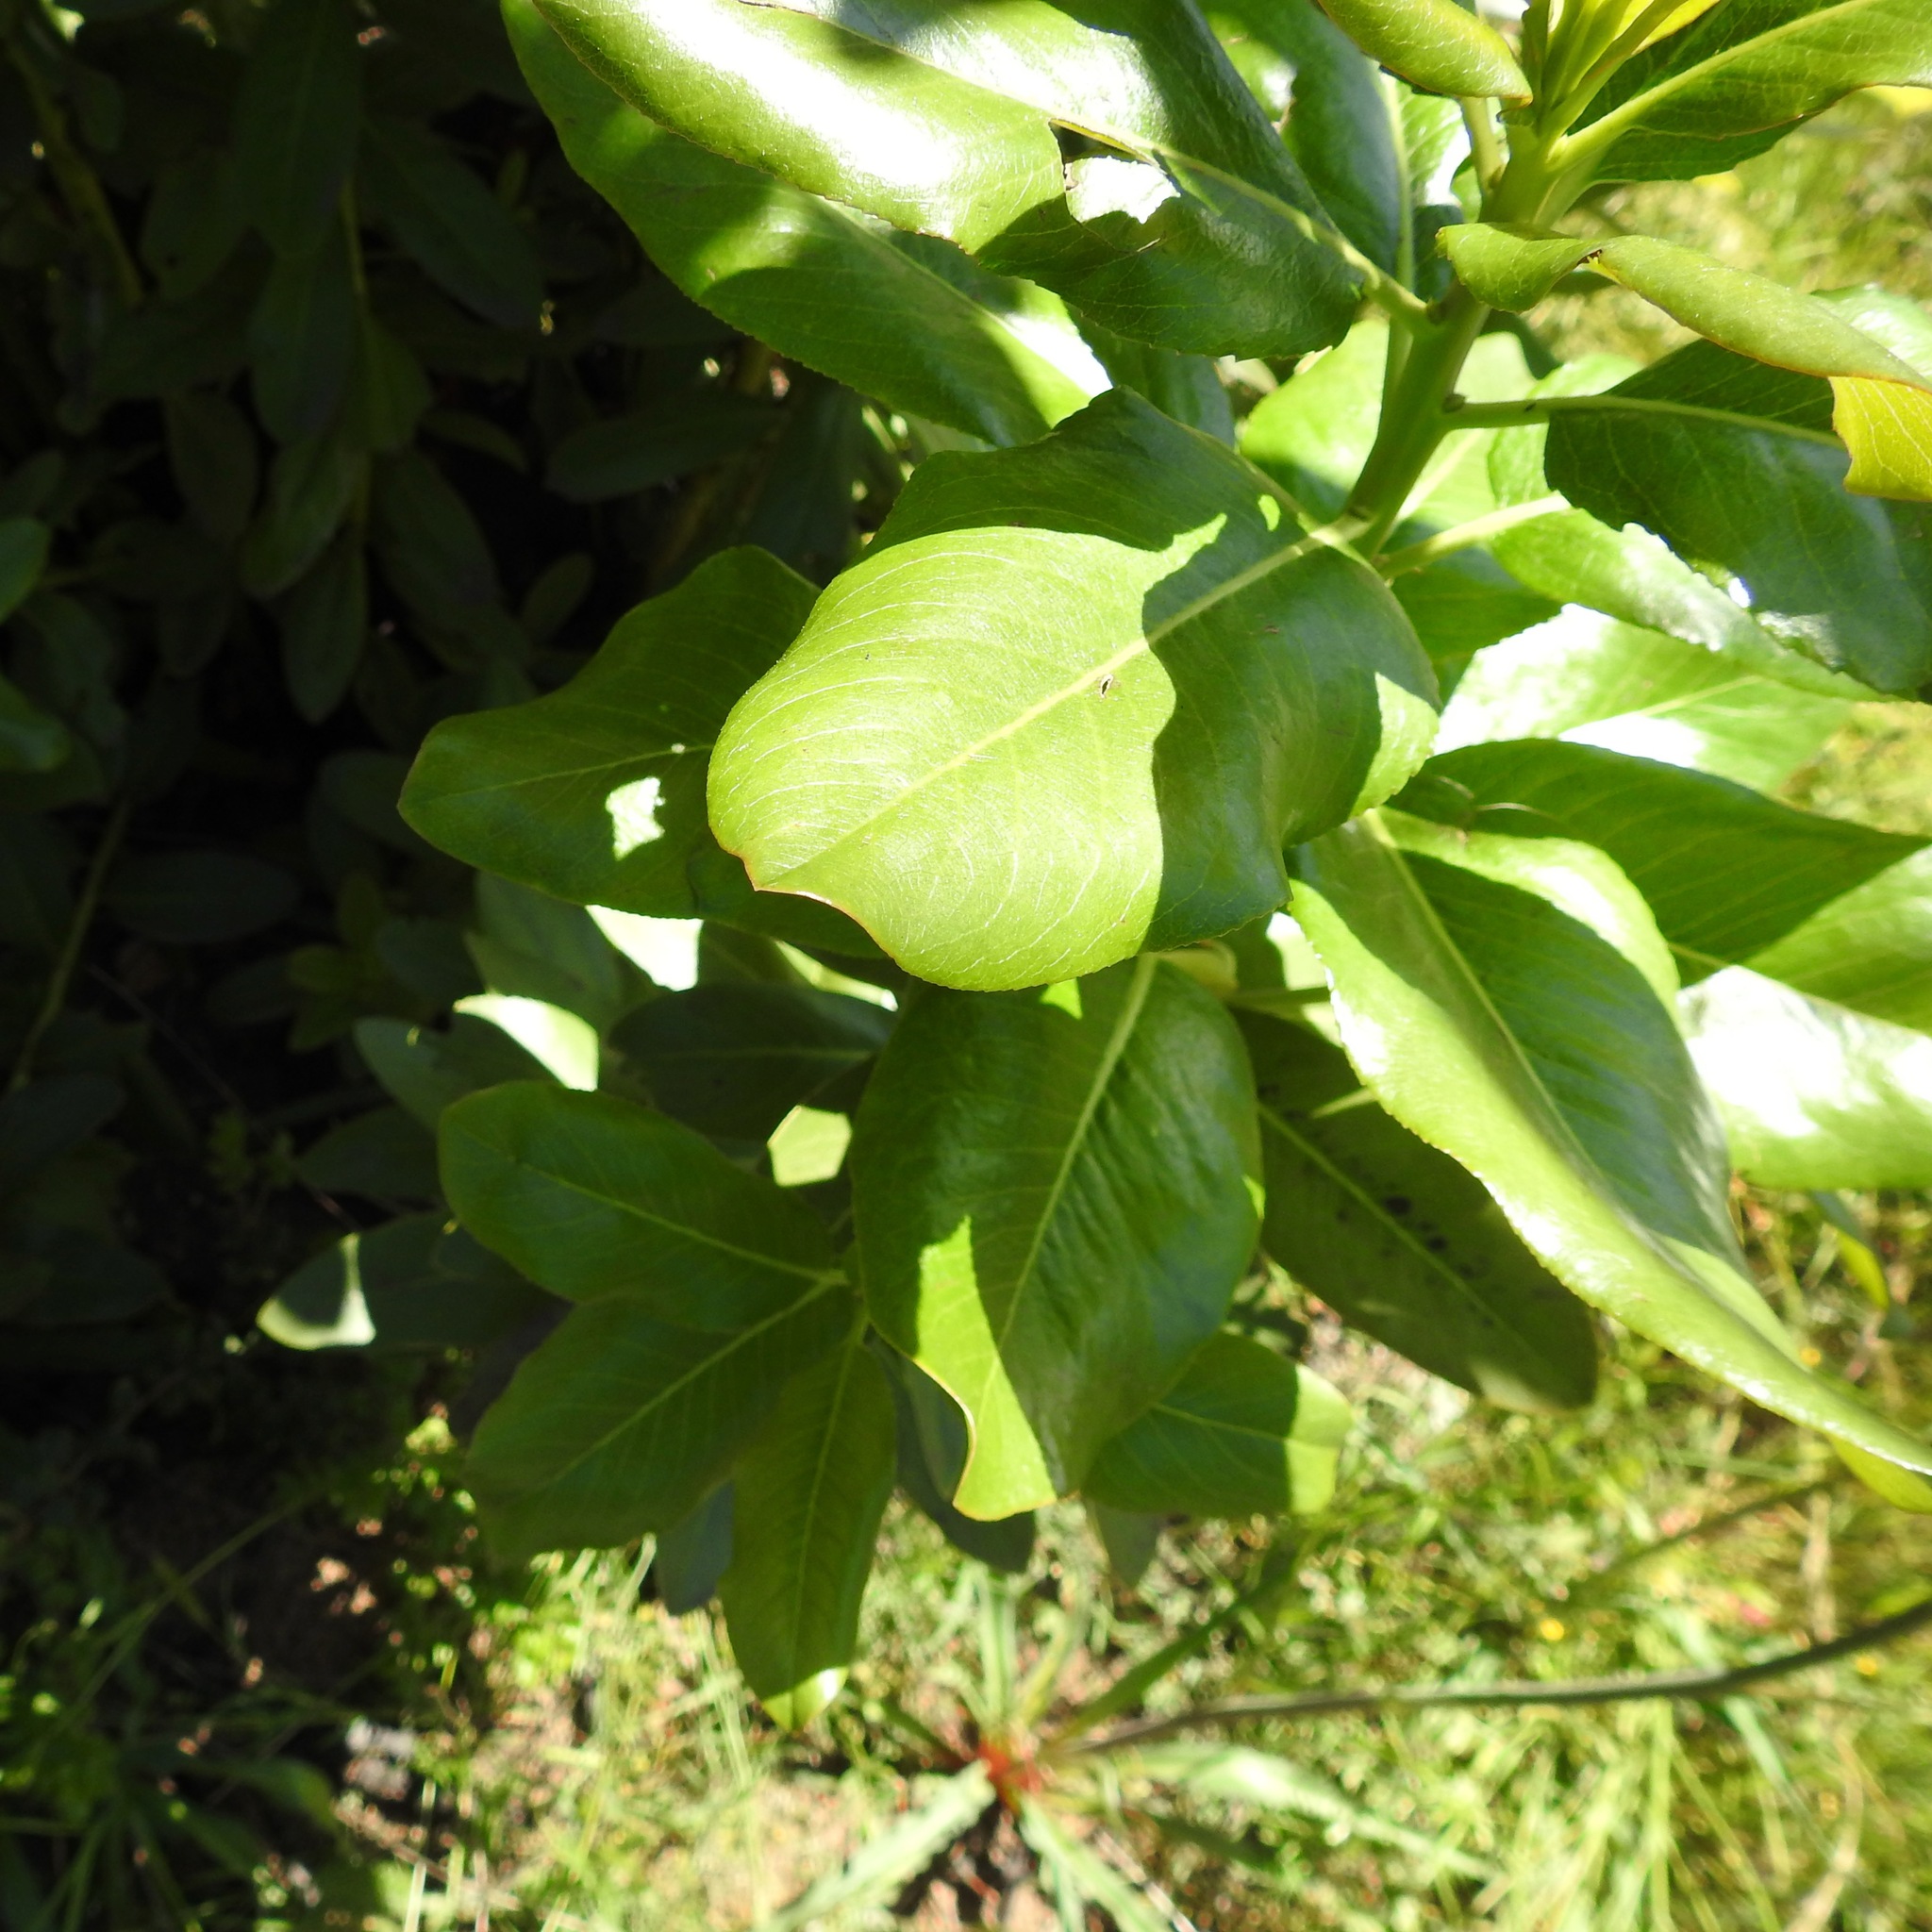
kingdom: Plantae
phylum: Tracheophyta
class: Magnoliopsida
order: Ericales
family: Ericaceae
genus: Arbutus
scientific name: Arbutus menziesii
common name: Pacific madrone
